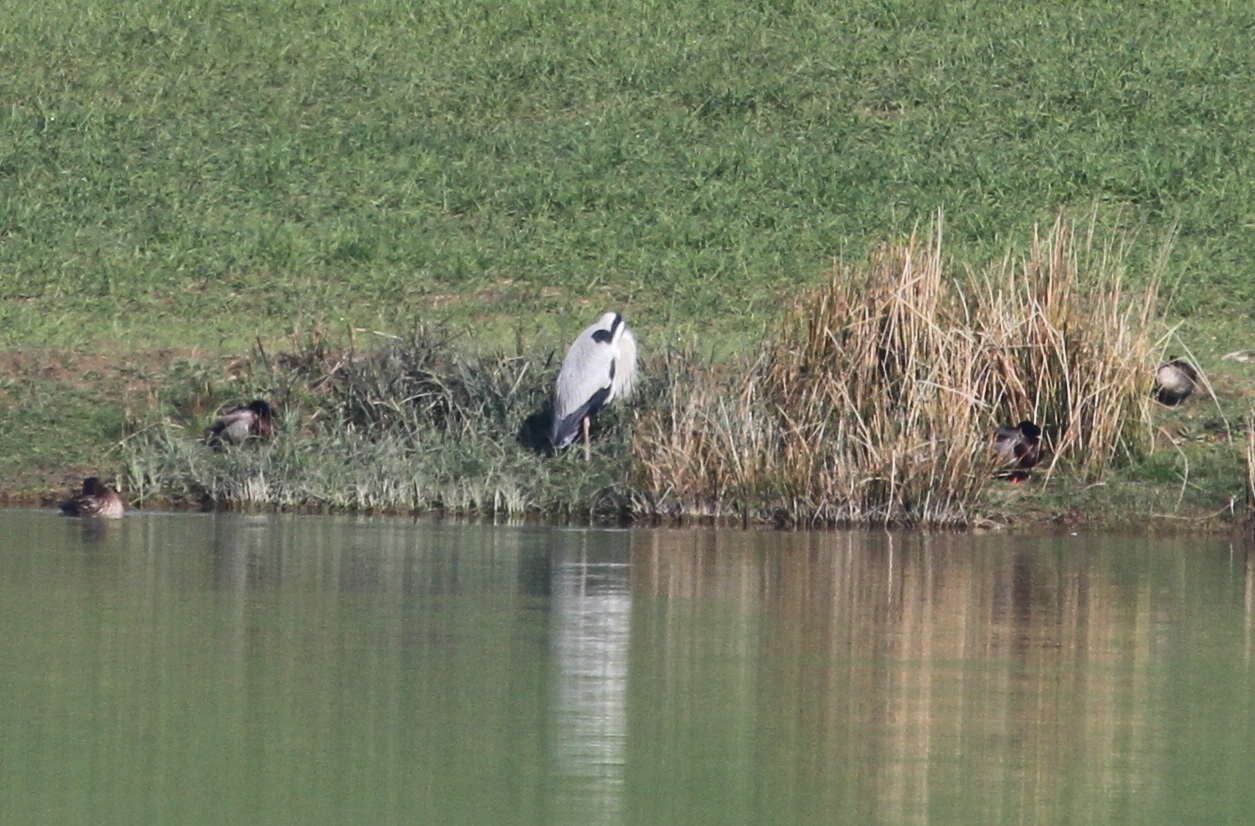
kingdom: Animalia
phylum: Chordata
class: Aves
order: Pelecaniformes
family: Ardeidae
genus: Ardea
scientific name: Ardea cinerea
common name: Grey heron
